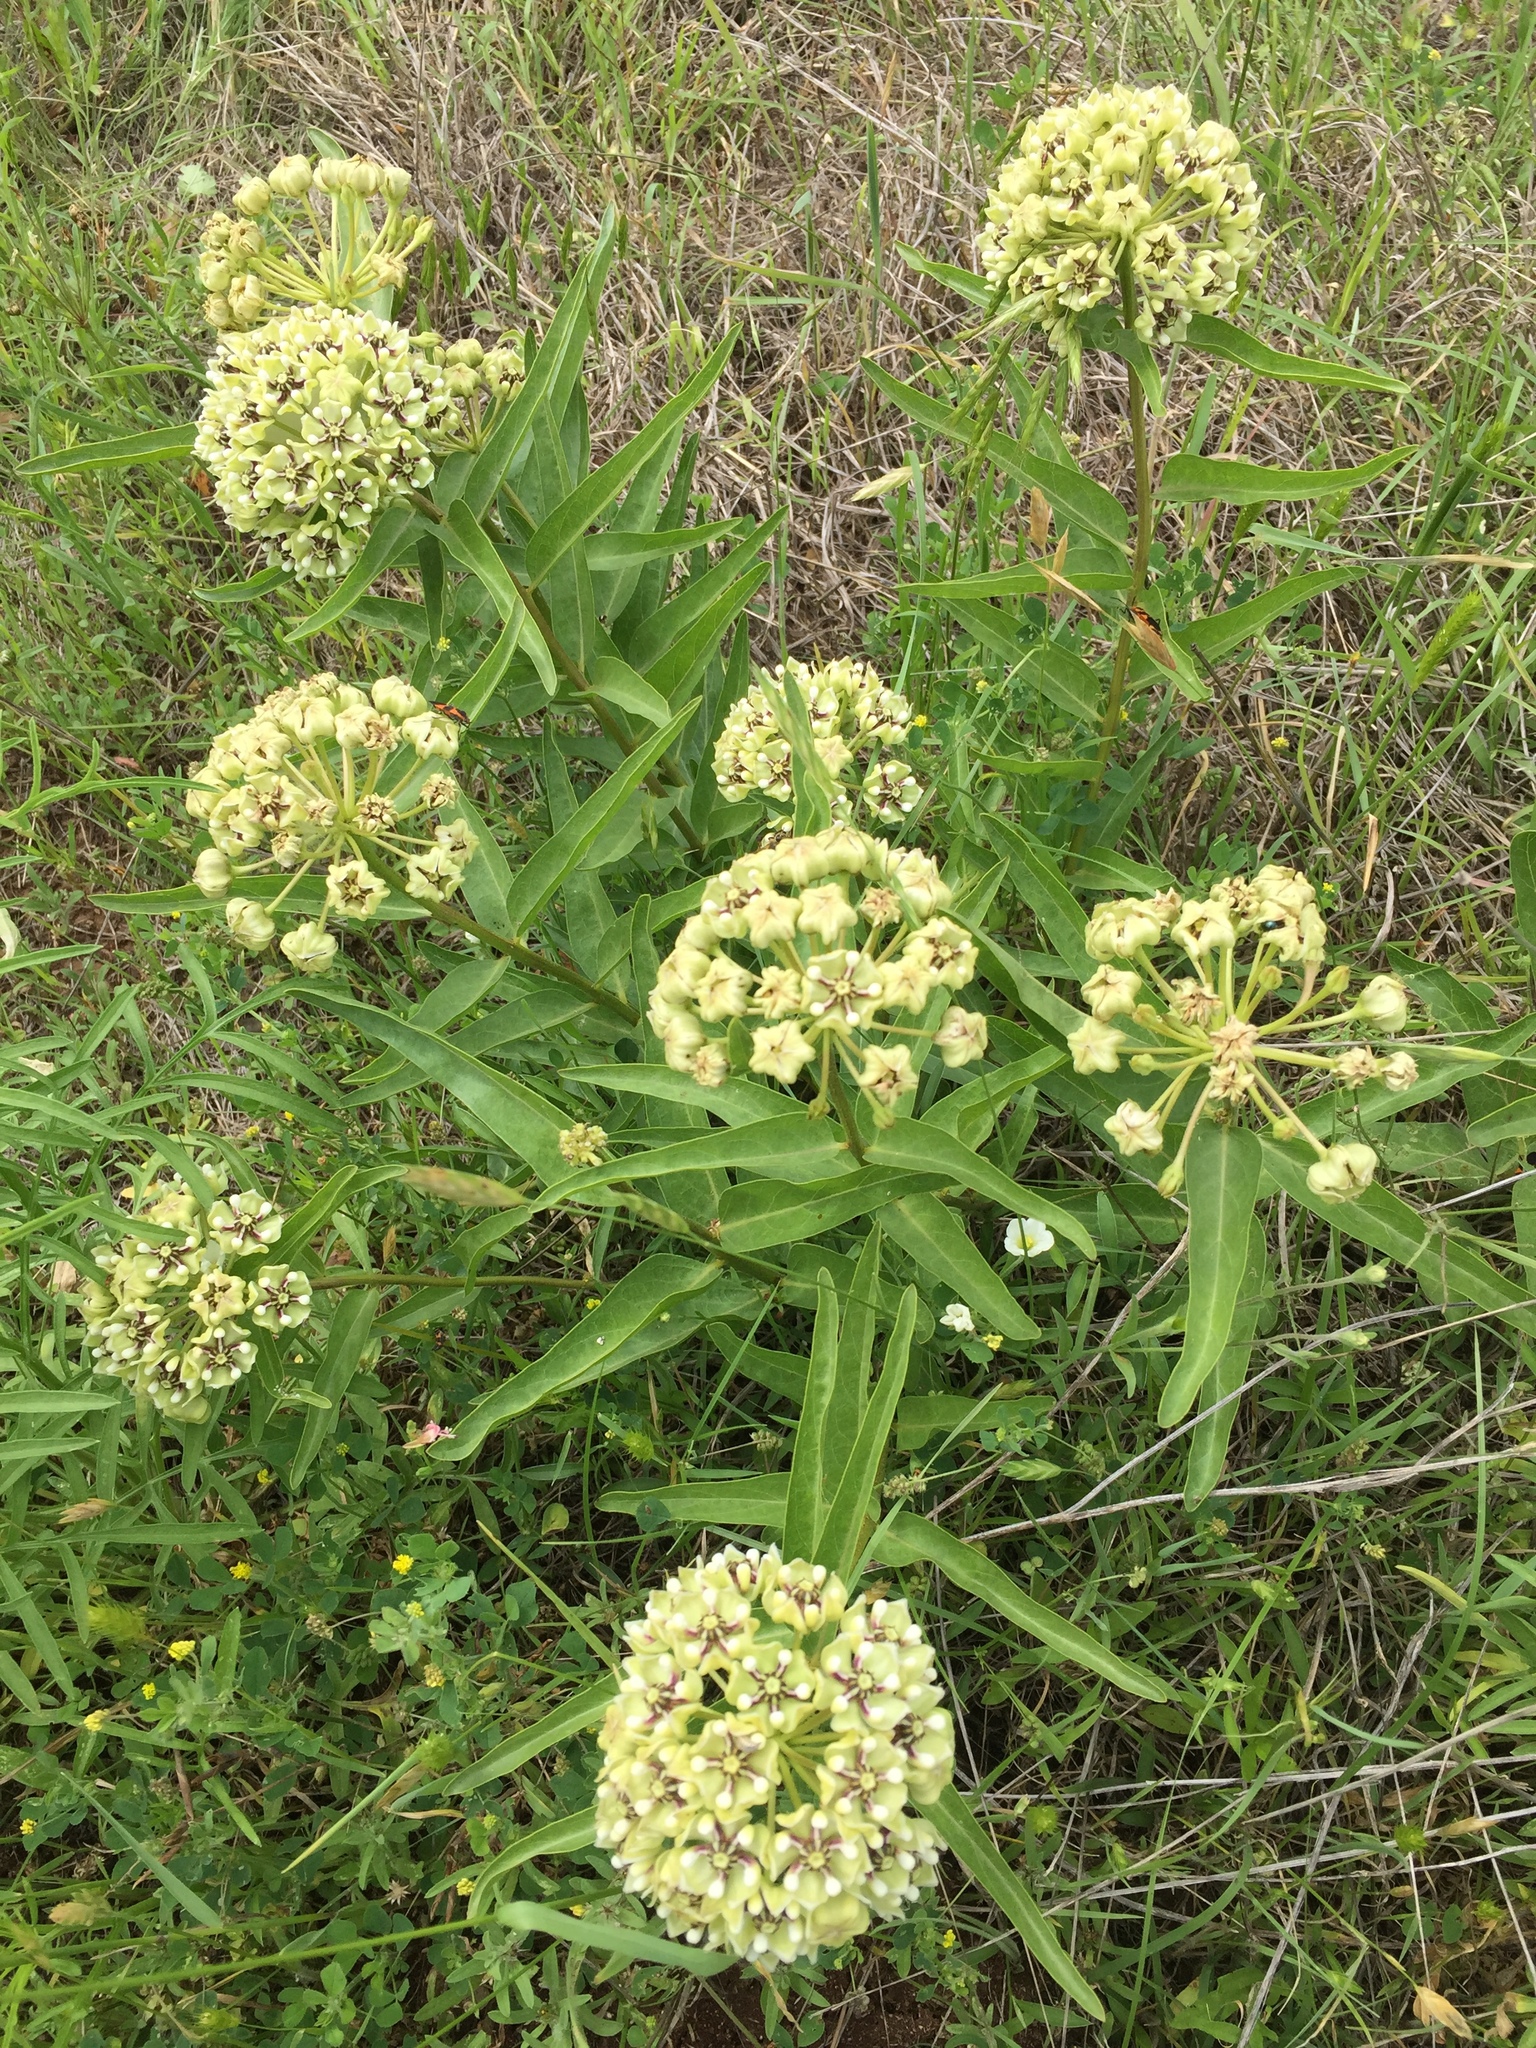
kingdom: Plantae
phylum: Tracheophyta
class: Magnoliopsida
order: Gentianales
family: Apocynaceae
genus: Asclepias
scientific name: Asclepias asperula
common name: Antelope horns
